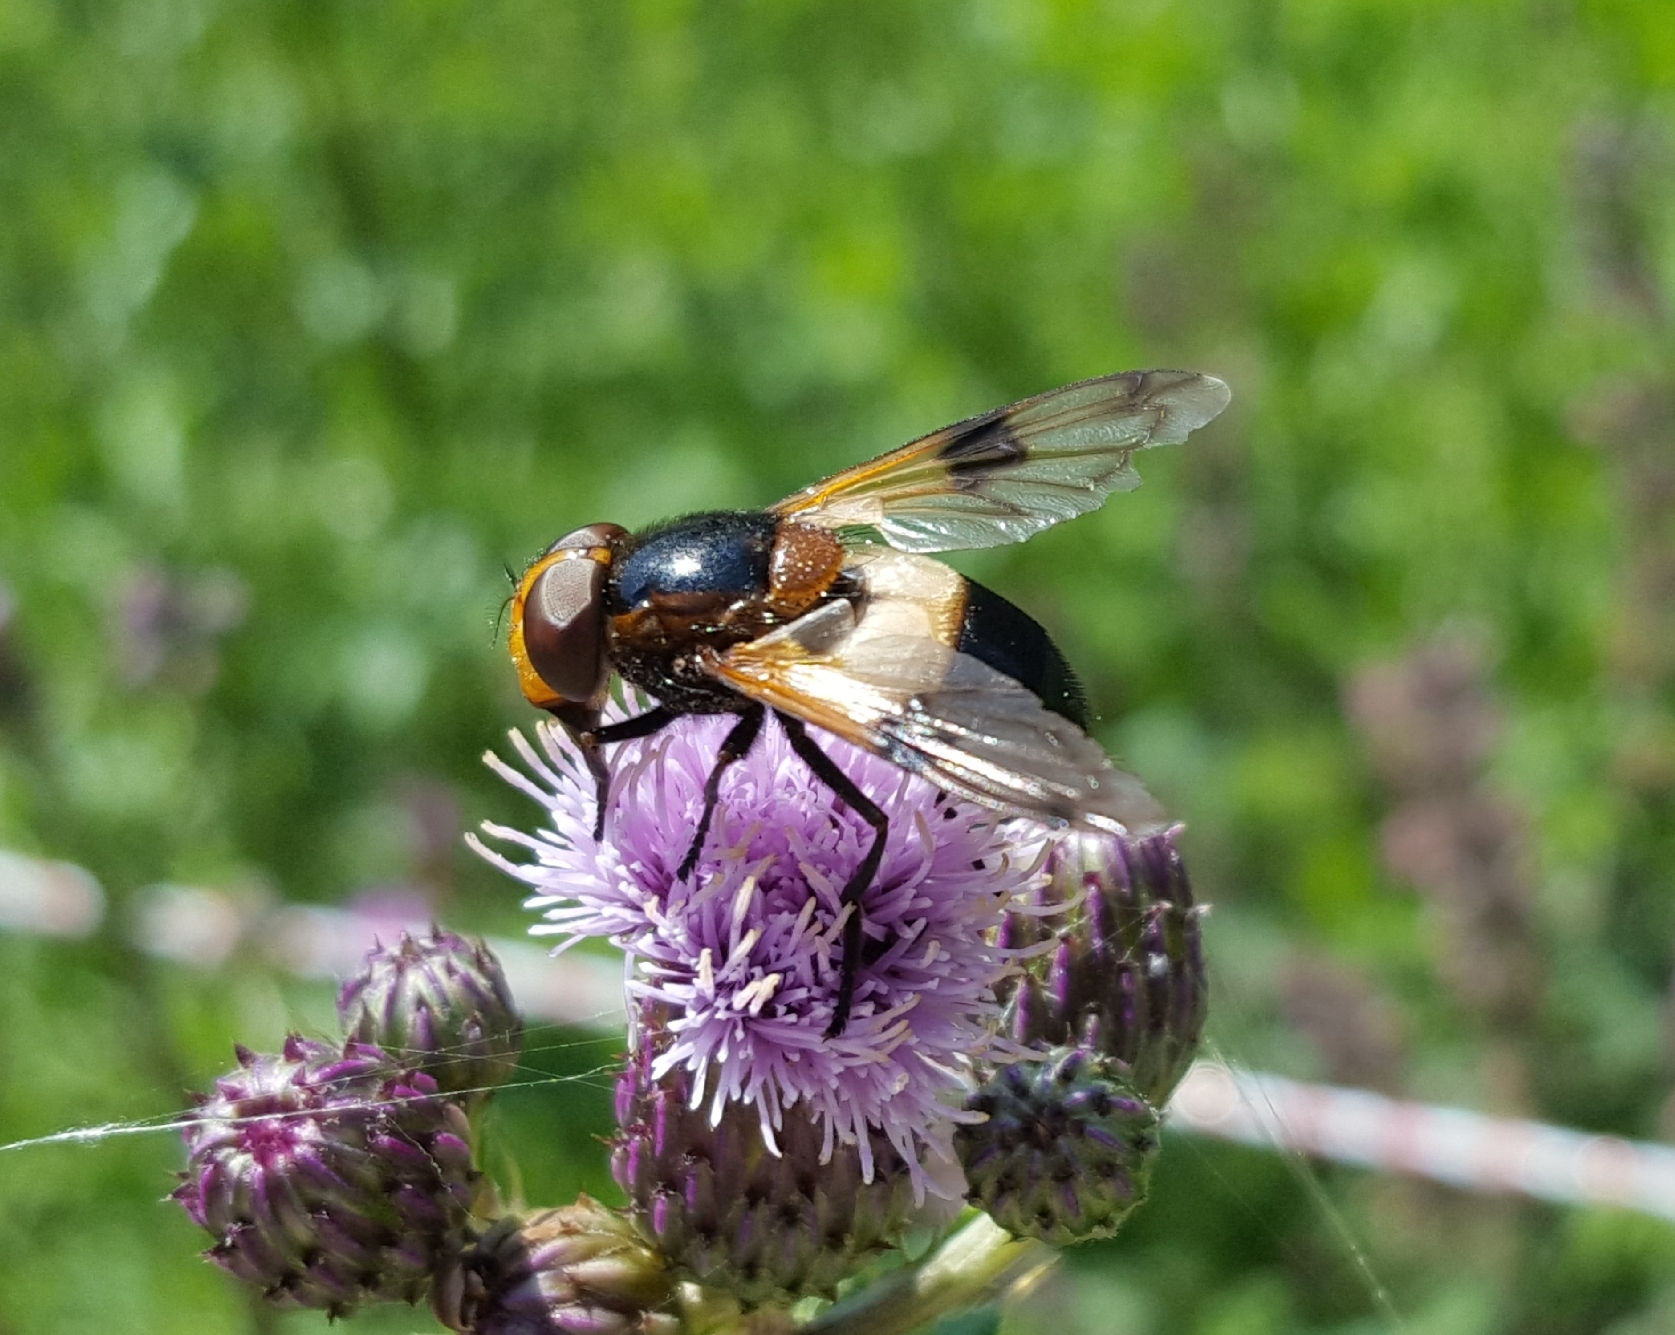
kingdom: Animalia
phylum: Arthropoda
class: Insecta
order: Diptera
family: Syrphidae
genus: Volucella
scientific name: Volucella pellucens
